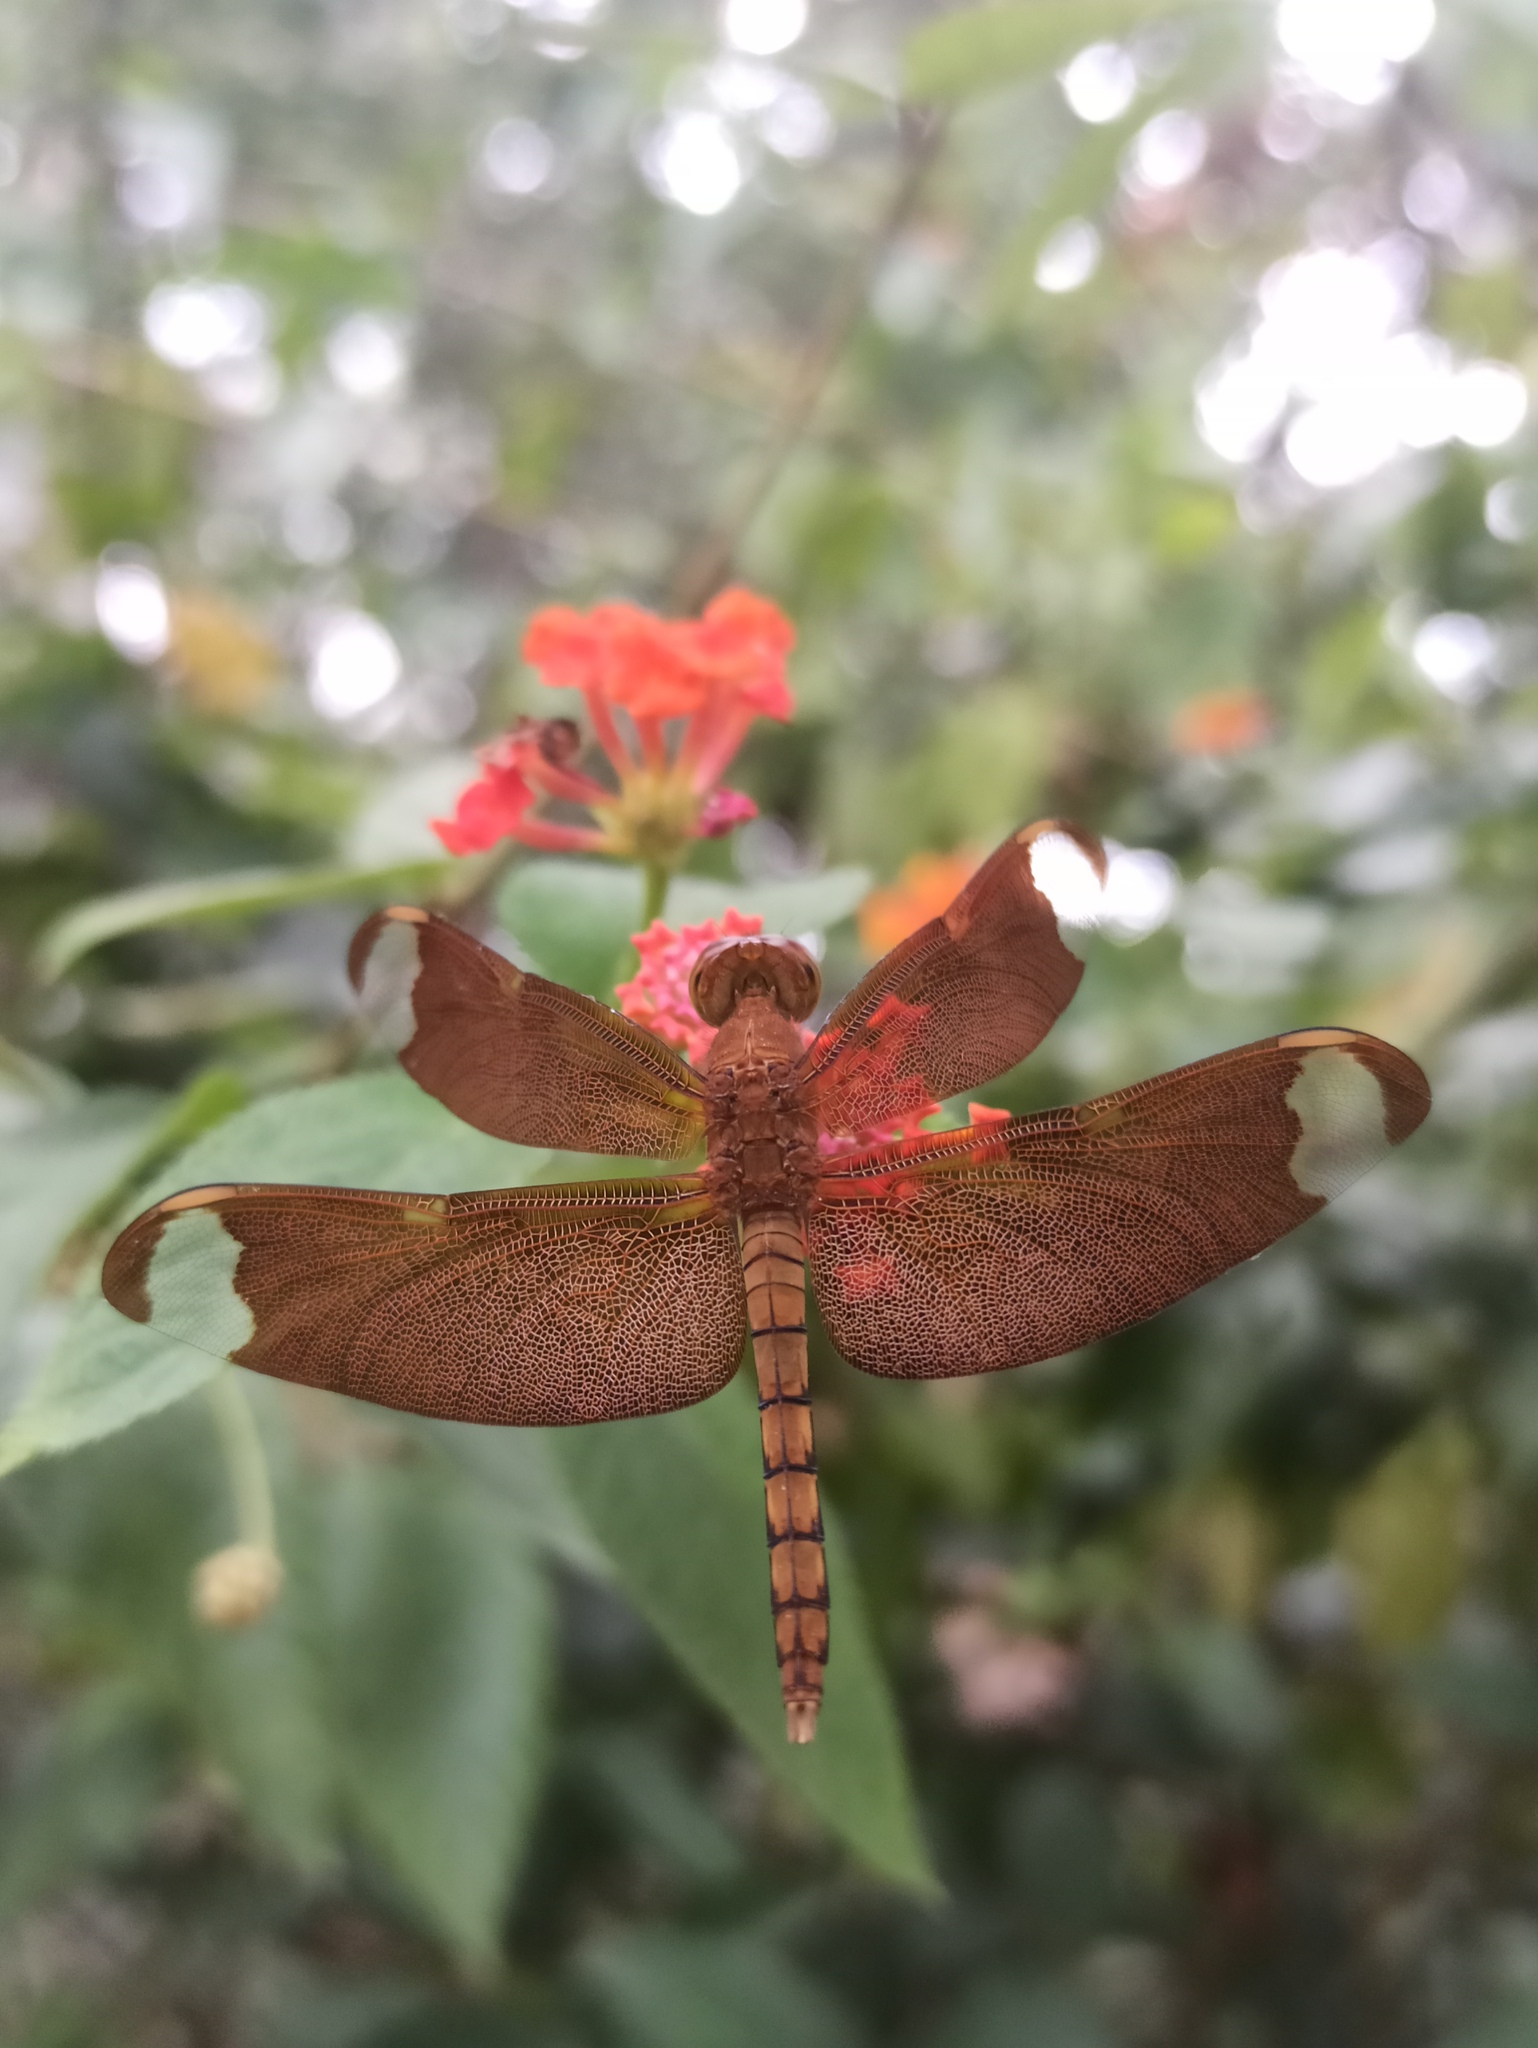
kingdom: Animalia
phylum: Arthropoda
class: Insecta
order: Odonata
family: Libellulidae
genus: Neurothemis
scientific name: Neurothemis fulvia
